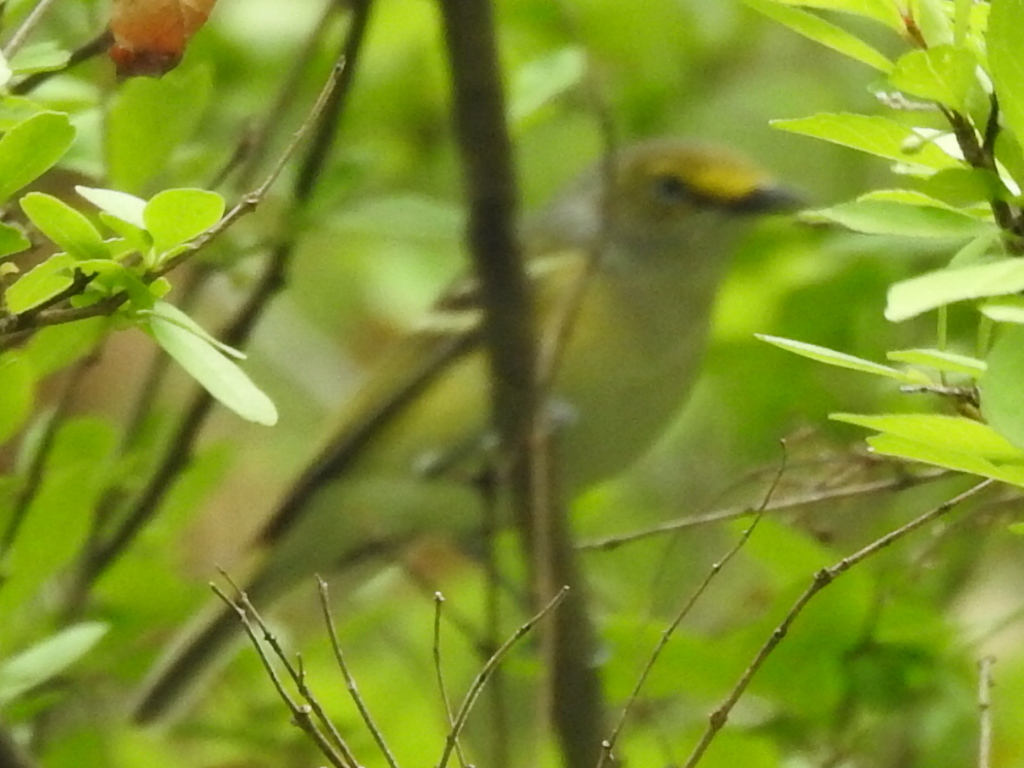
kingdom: Animalia
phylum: Chordata
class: Aves
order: Passeriformes
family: Vireonidae
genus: Vireo
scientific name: Vireo griseus
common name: White-eyed vireo
